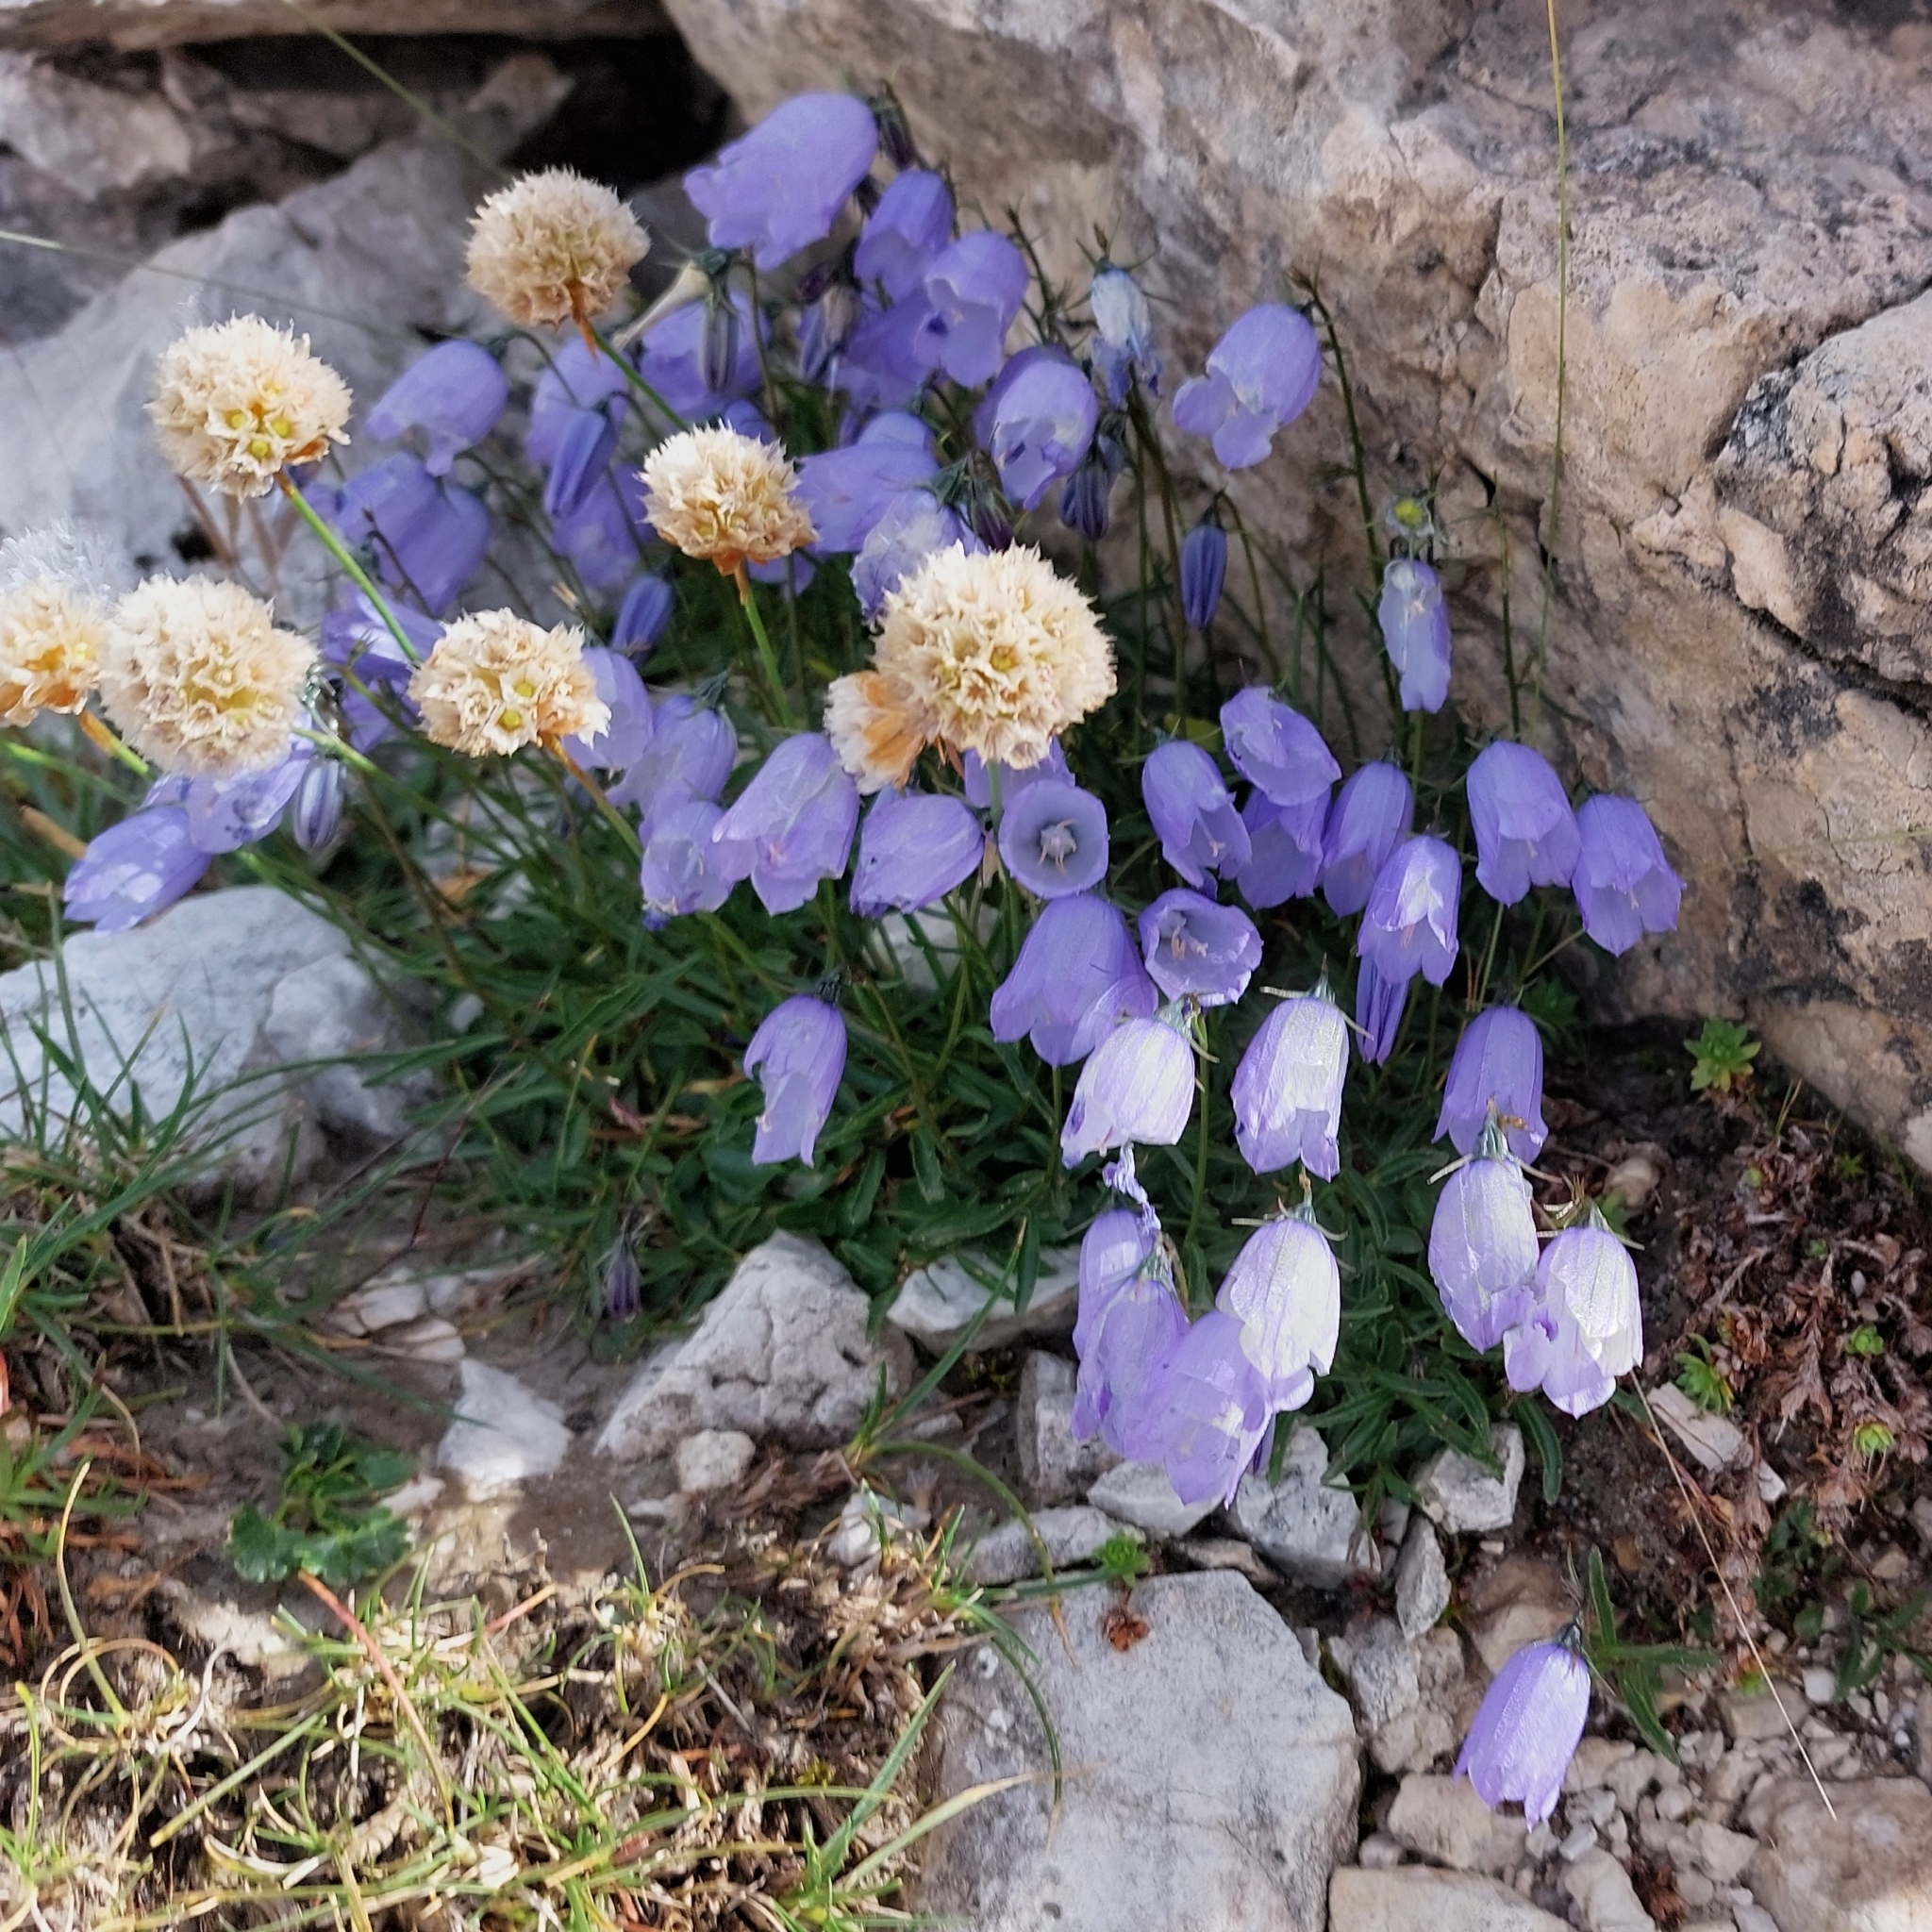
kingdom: Plantae
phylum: Tracheophyta
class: Magnoliopsida
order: Asterales
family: Campanulaceae
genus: Campanula
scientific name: Campanula cochleariifolia
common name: Fairies'-thimbles
